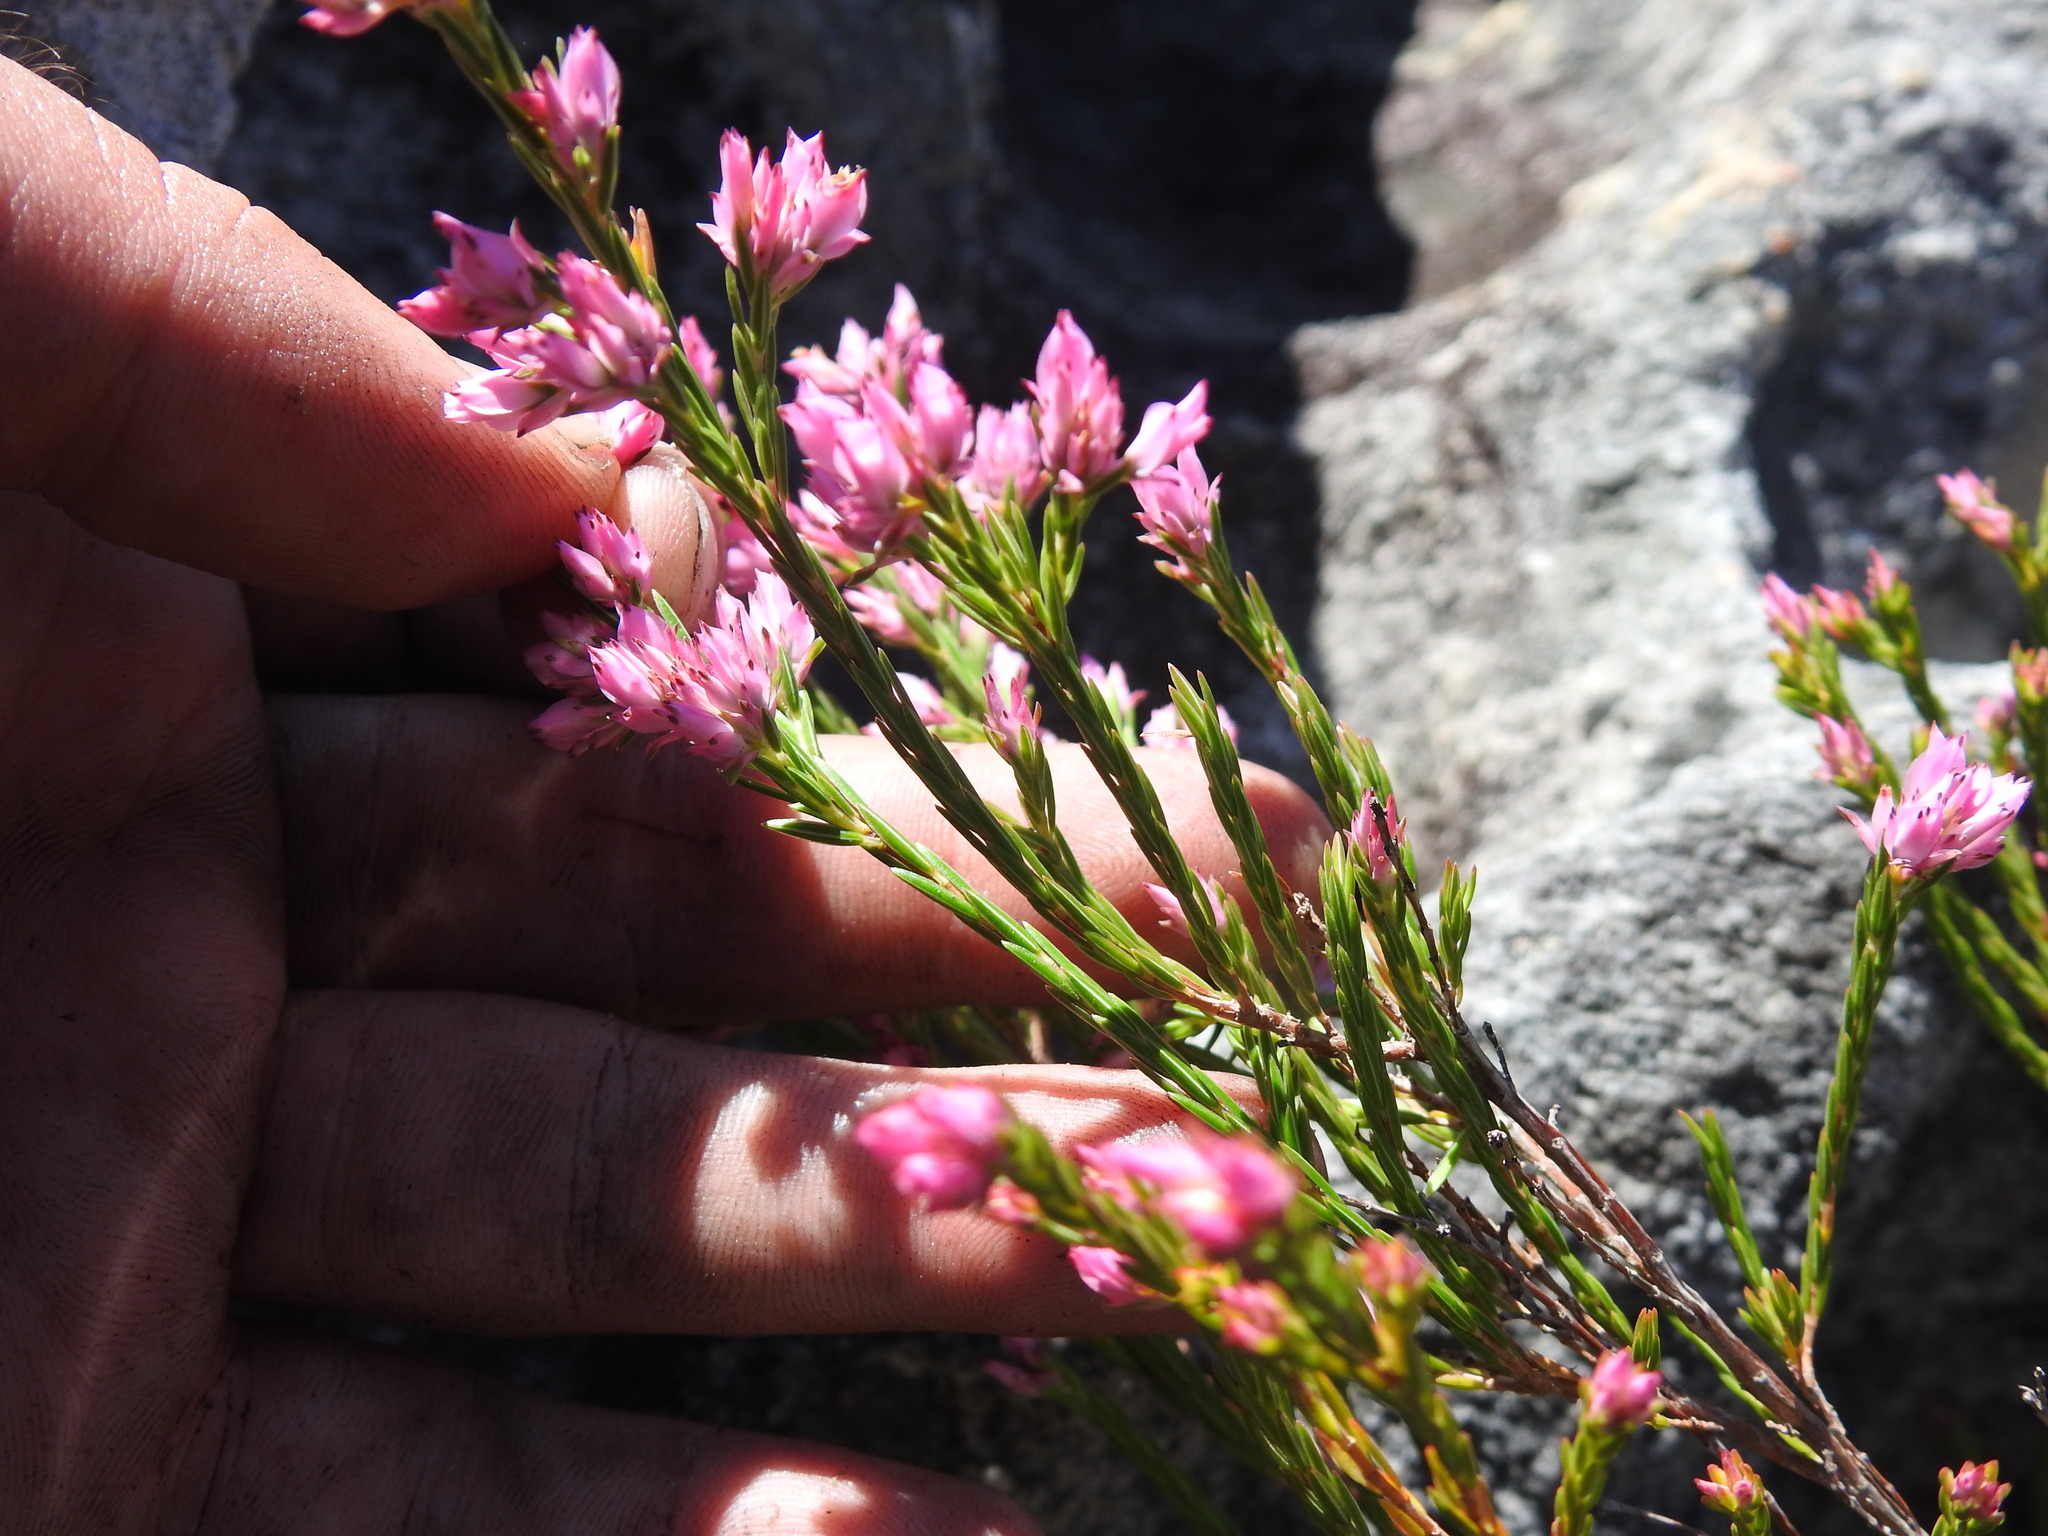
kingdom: Plantae
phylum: Tracheophyta
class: Magnoliopsida
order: Ericales
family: Ericaceae
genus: Erica
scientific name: Erica taxifolia
